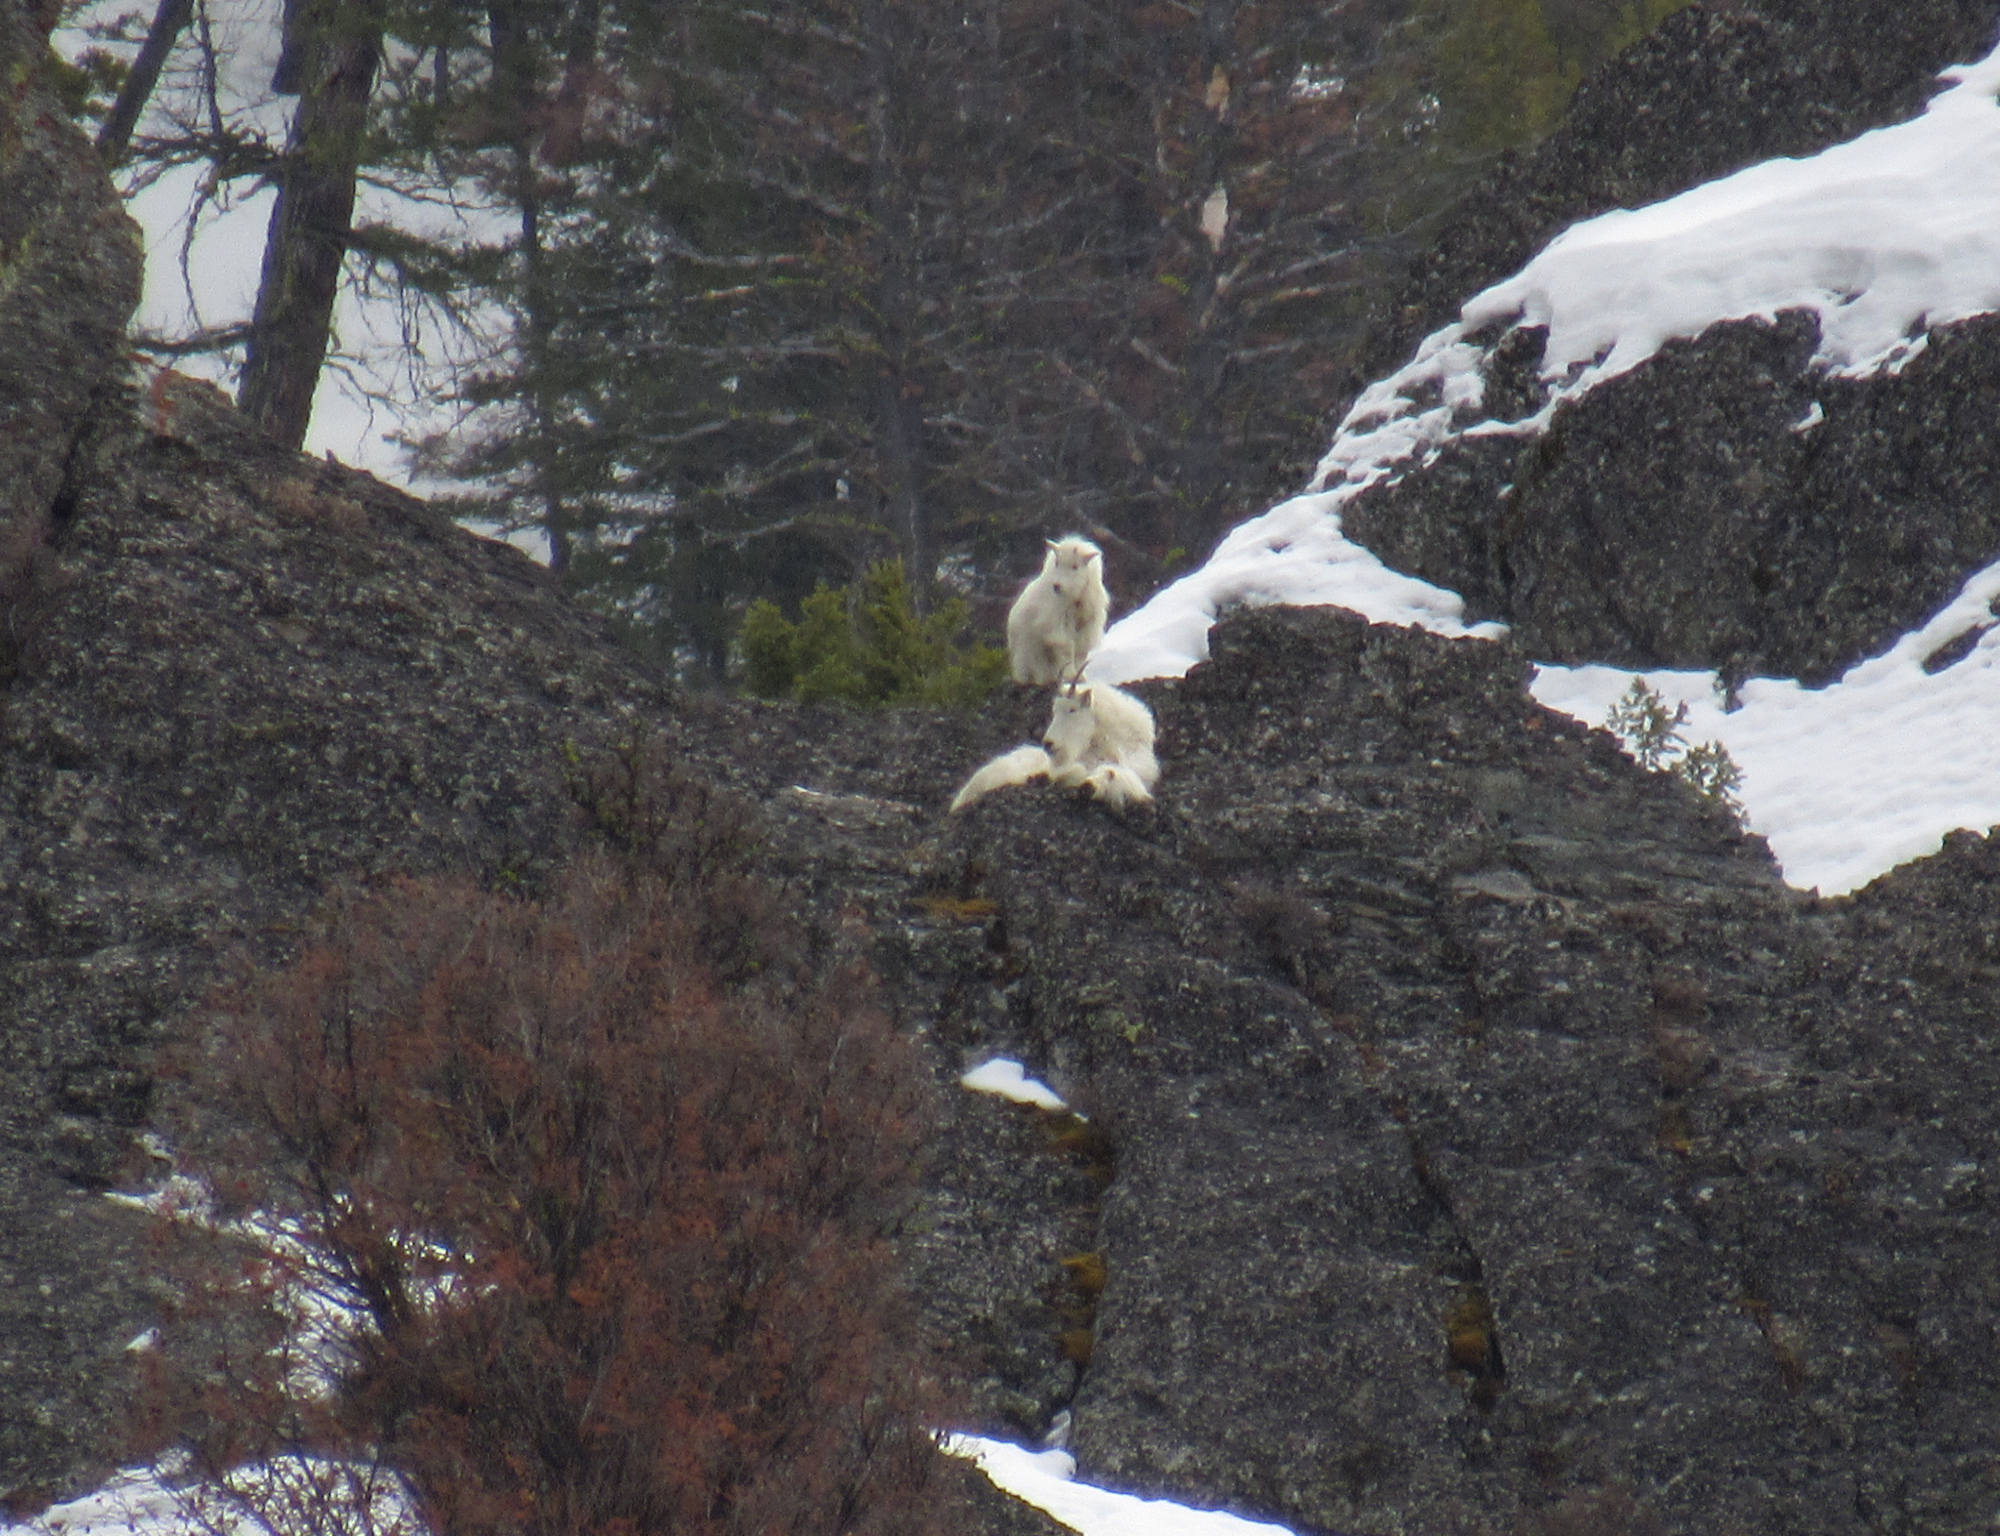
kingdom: Animalia
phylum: Chordata
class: Mammalia
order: Artiodactyla
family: Bovidae
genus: Oreamnos
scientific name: Oreamnos americanus
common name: Mountain goat
